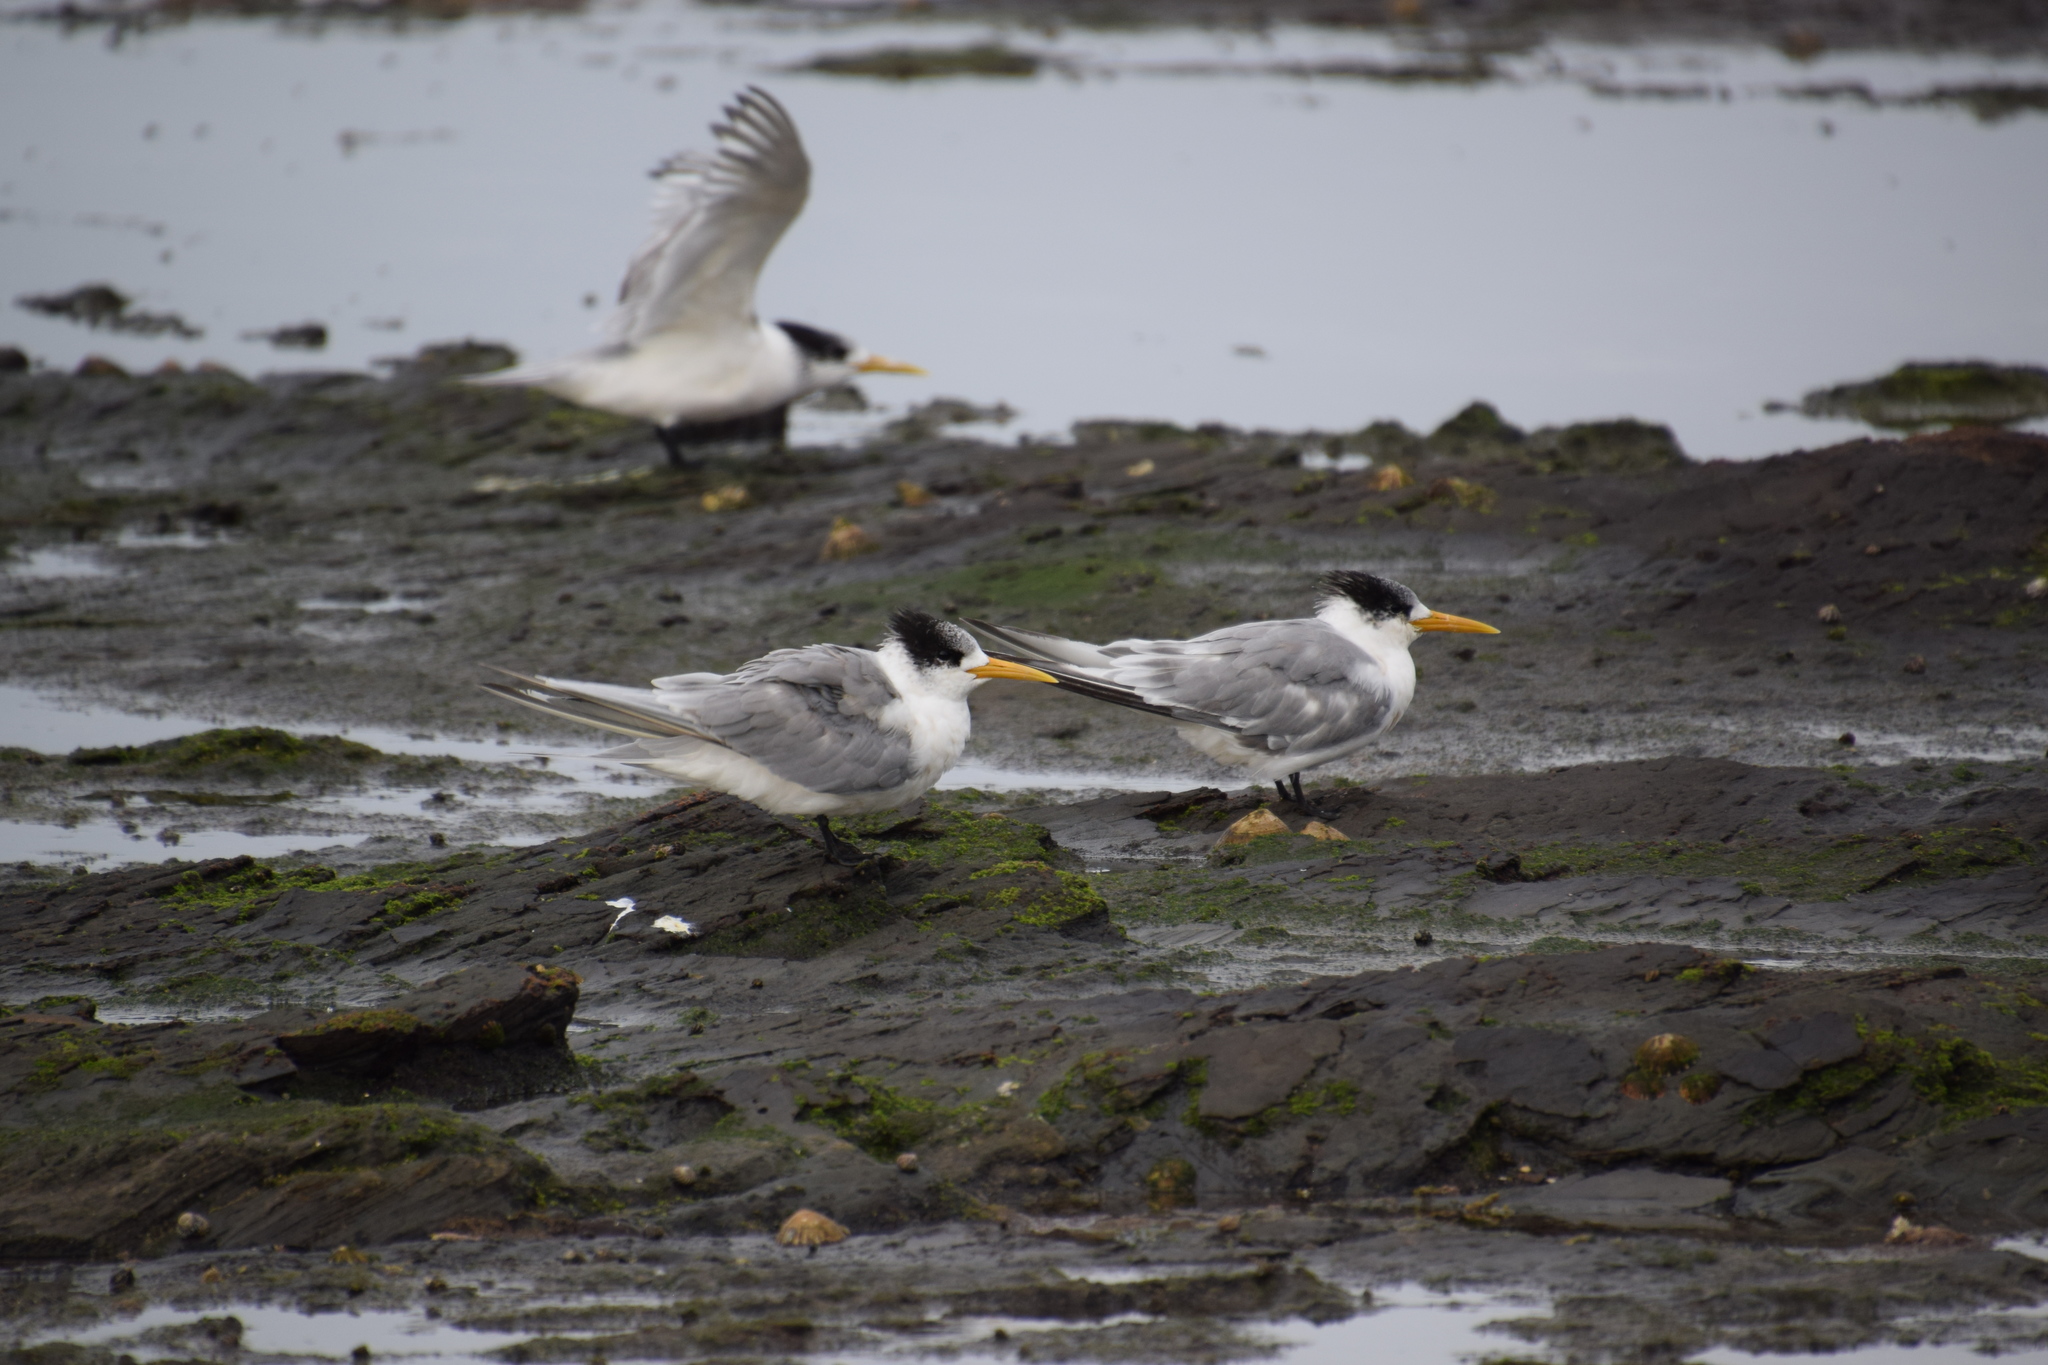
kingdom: Animalia
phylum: Chordata
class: Aves
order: Charadriiformes
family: Laridae
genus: Thalasseus
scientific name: Thalasseus bergii
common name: Greater crested tern
